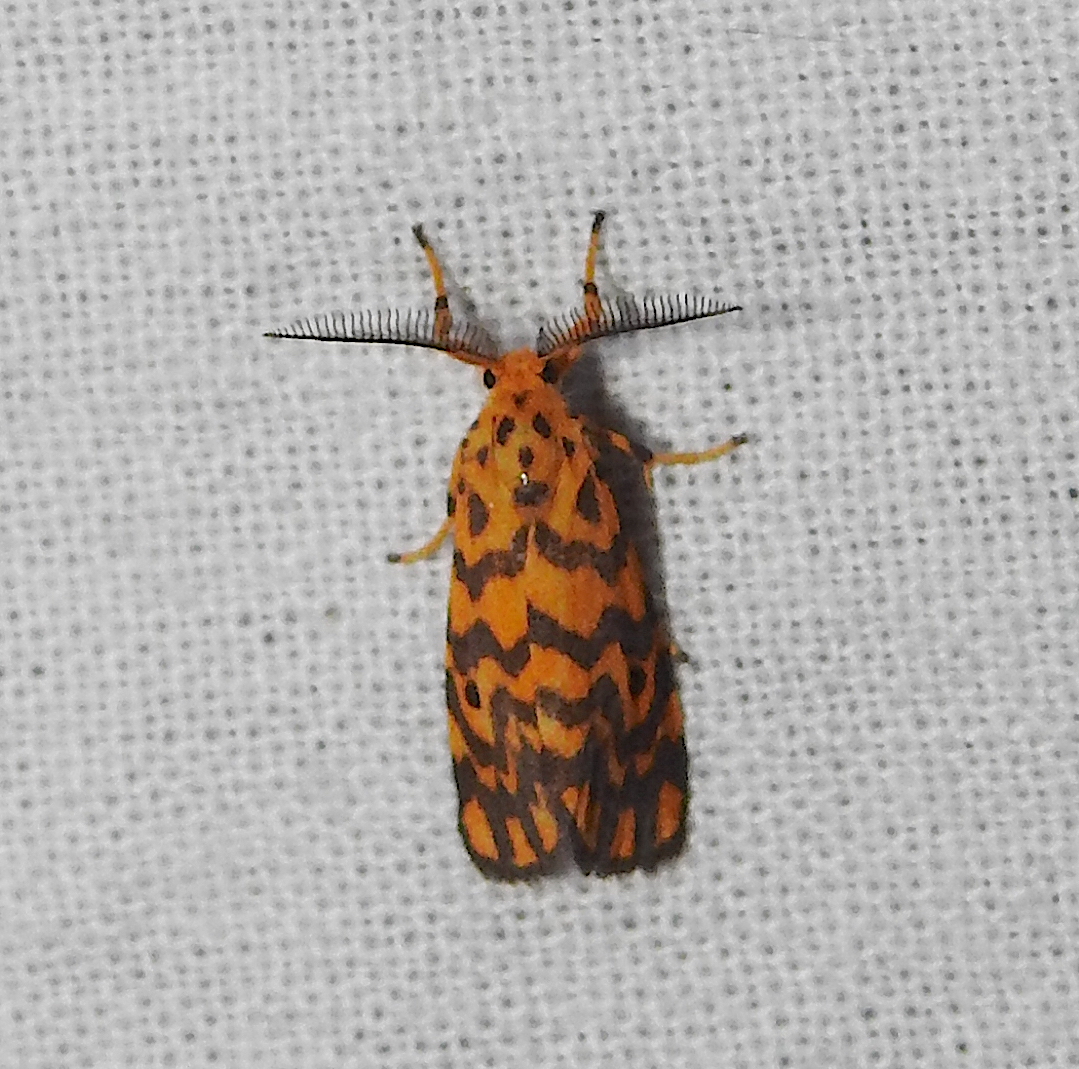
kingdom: Animalia
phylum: Arthropoda
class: Insecta
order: Lepidoptera
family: Erebidae
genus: Nepita
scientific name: Nepita conferta
